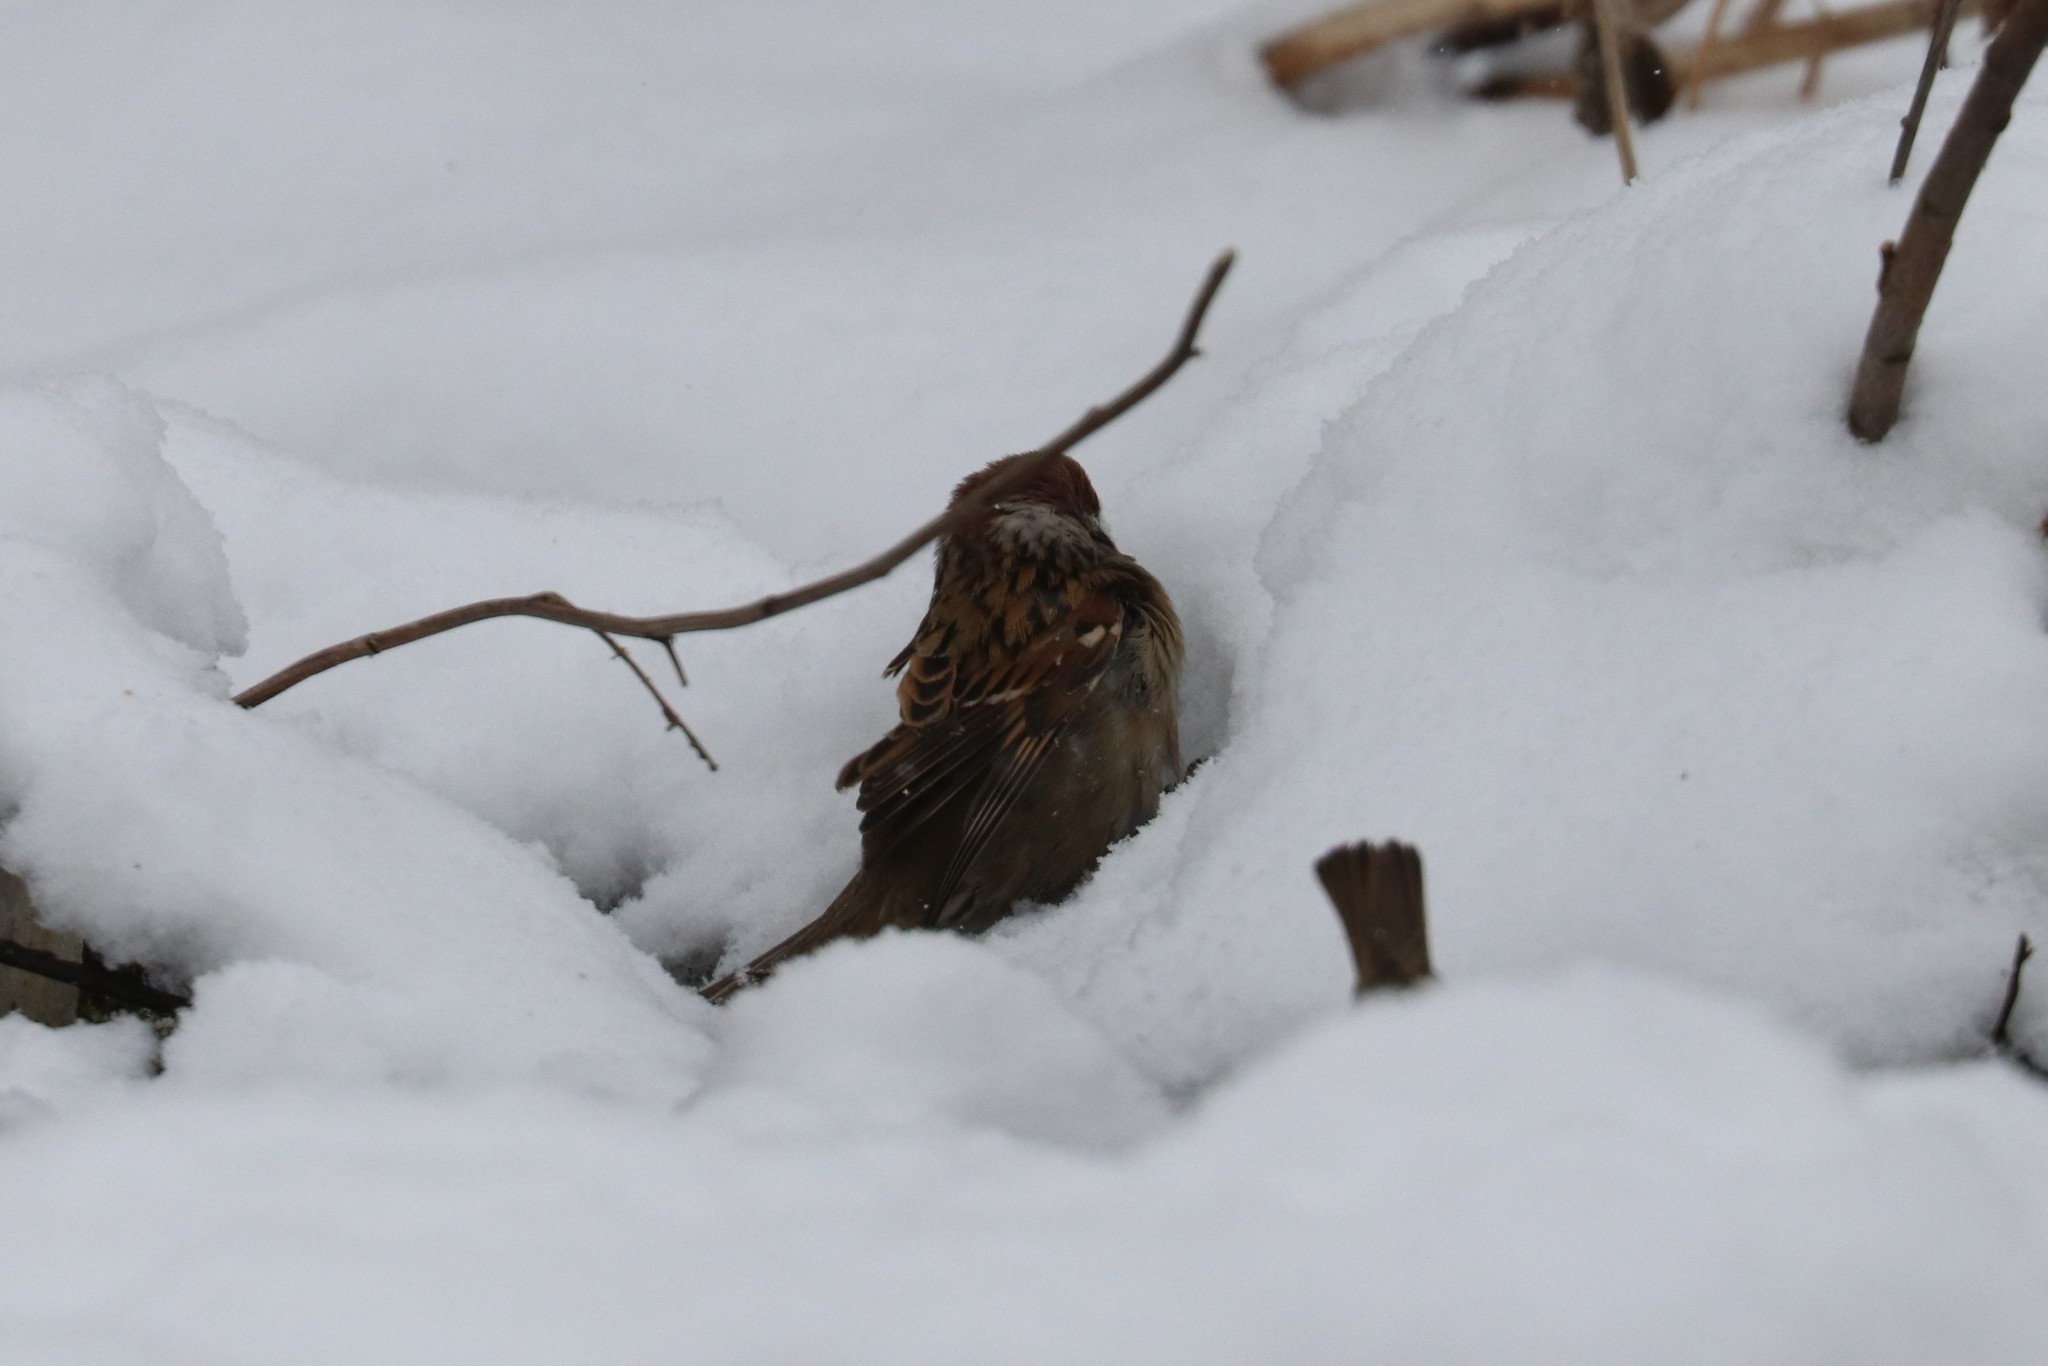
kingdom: Animalia
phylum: Chordata
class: Aves
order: Passeriformes
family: Passeridae
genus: Passer
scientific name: Passer montanus
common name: Eurasian tree sparrow
